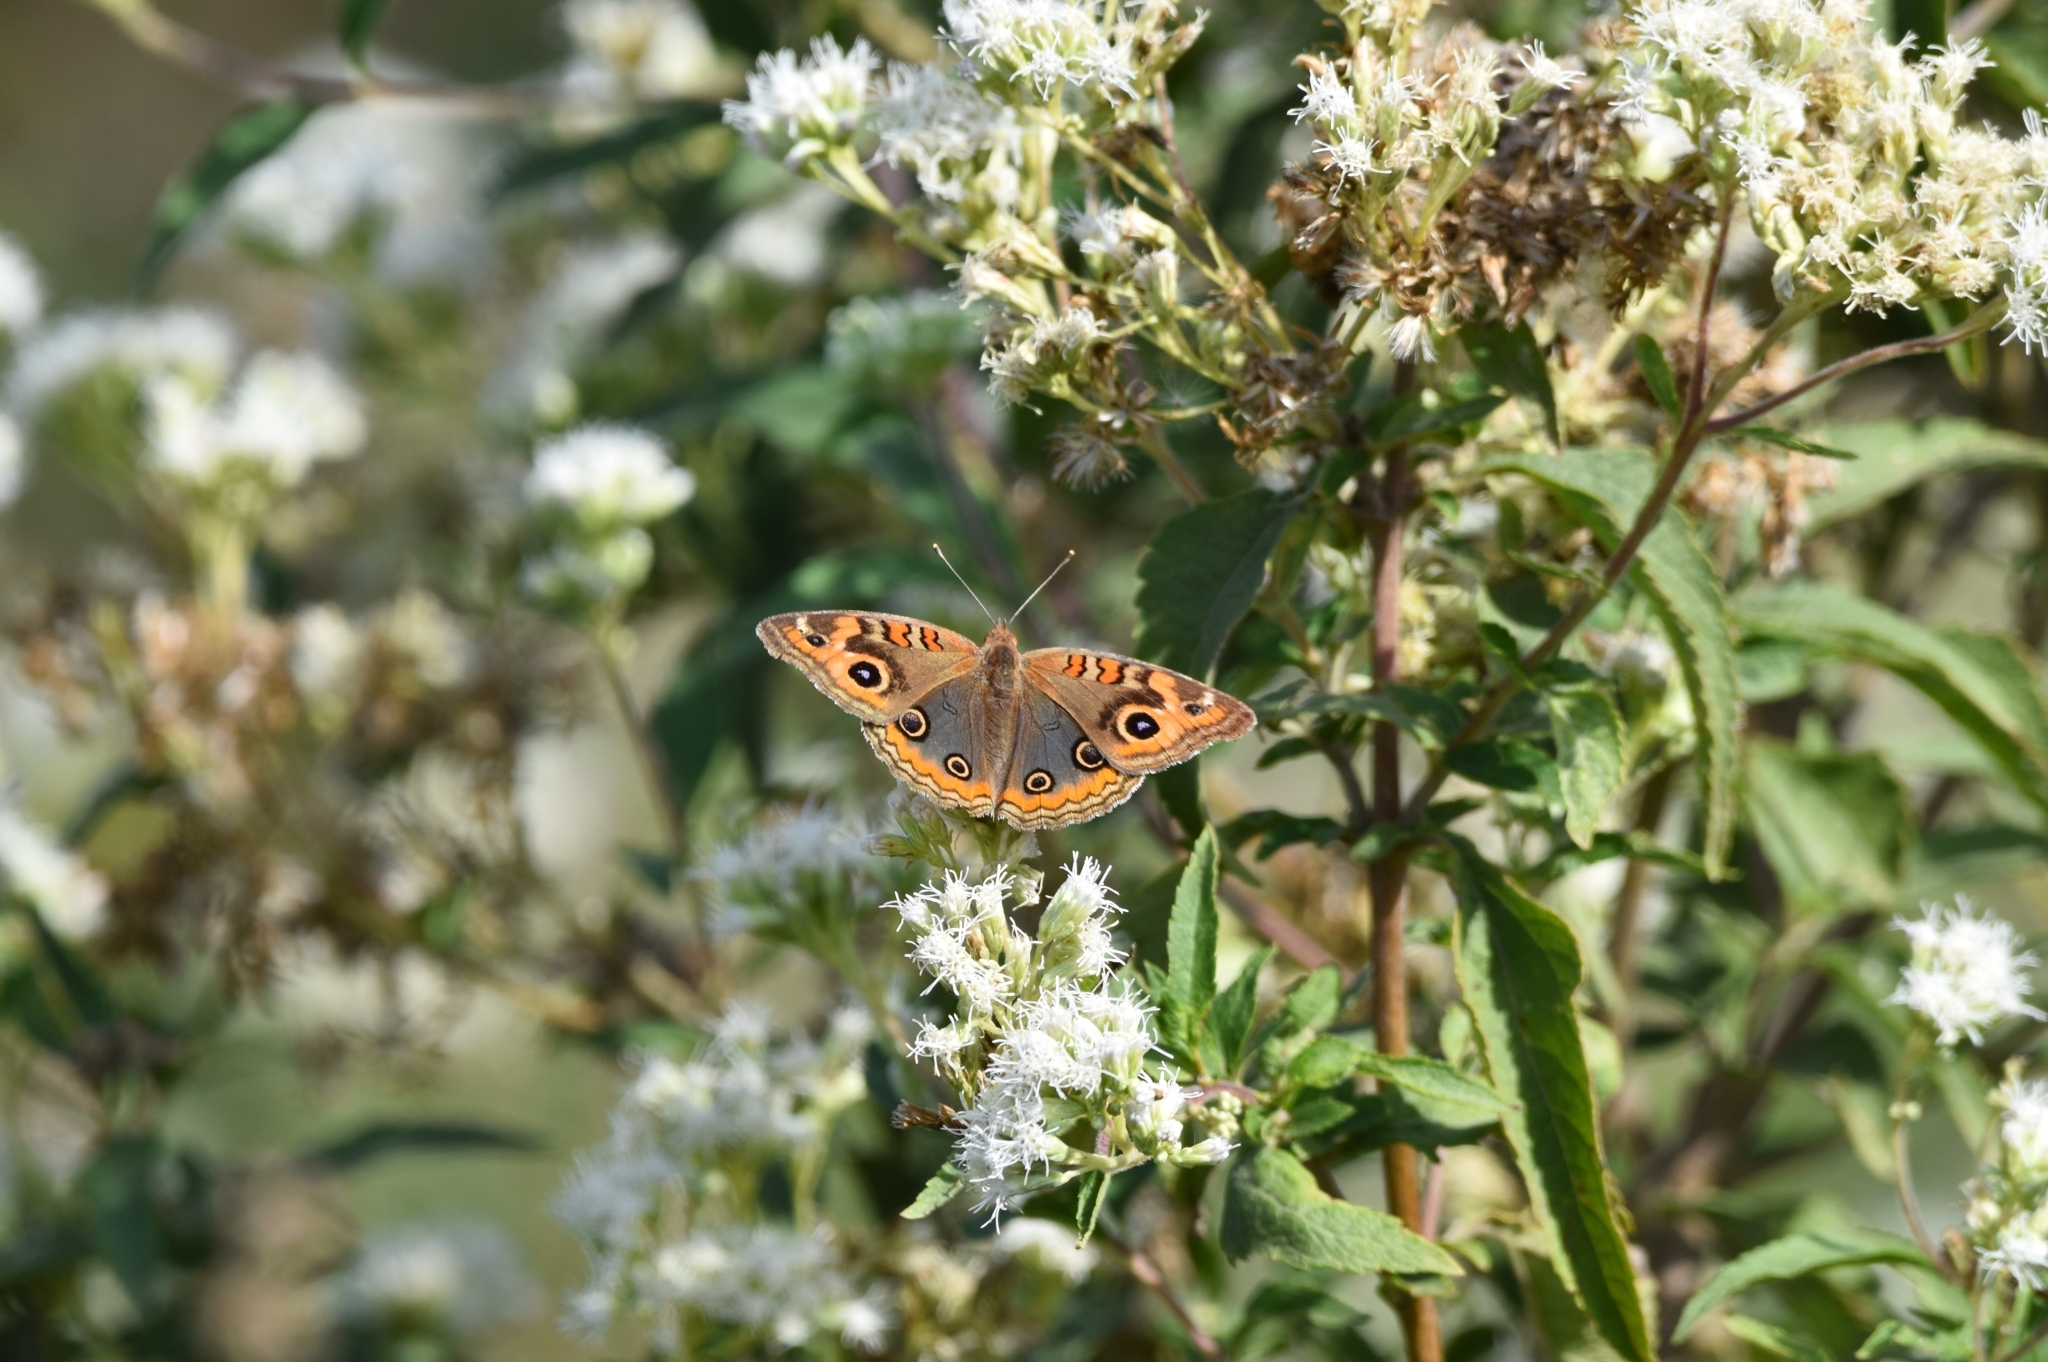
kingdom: Animalia
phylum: Arthropoda
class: Insecta
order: Lepidoptera
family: Nymphalidae
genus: Junonia
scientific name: Junonia lavinia
